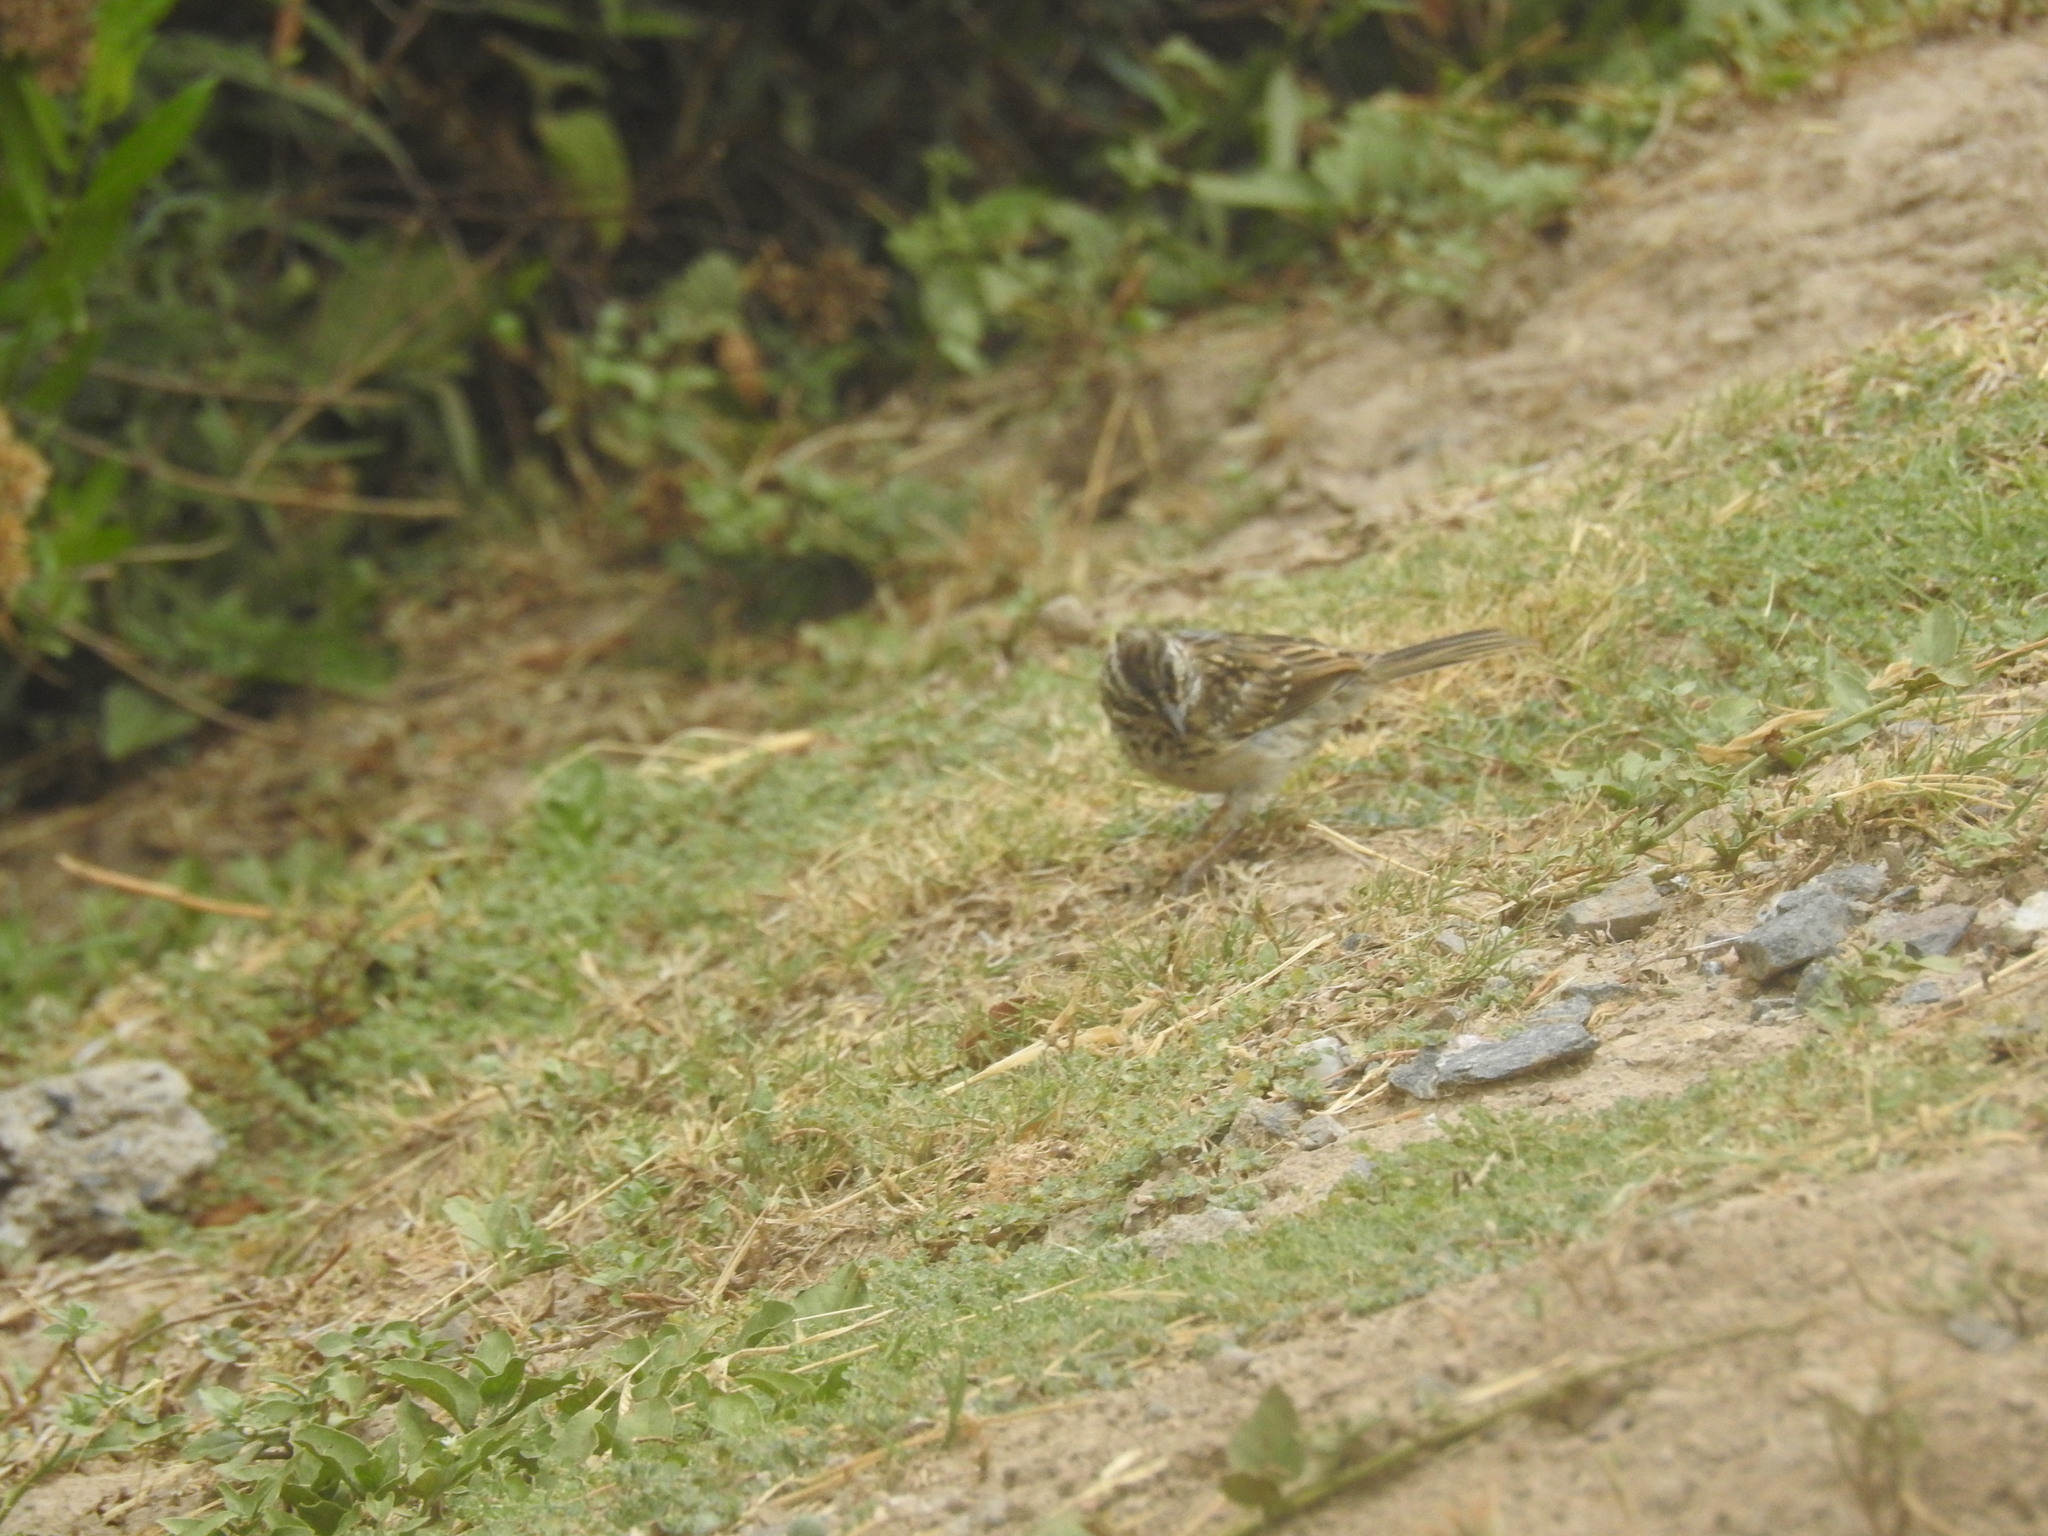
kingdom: Animalia
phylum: Chordata
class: Aves
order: Passeriformes
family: Passerellidae
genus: Zonotrichia
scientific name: Zonotrichia capensis
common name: Rufous-collared sparrow
